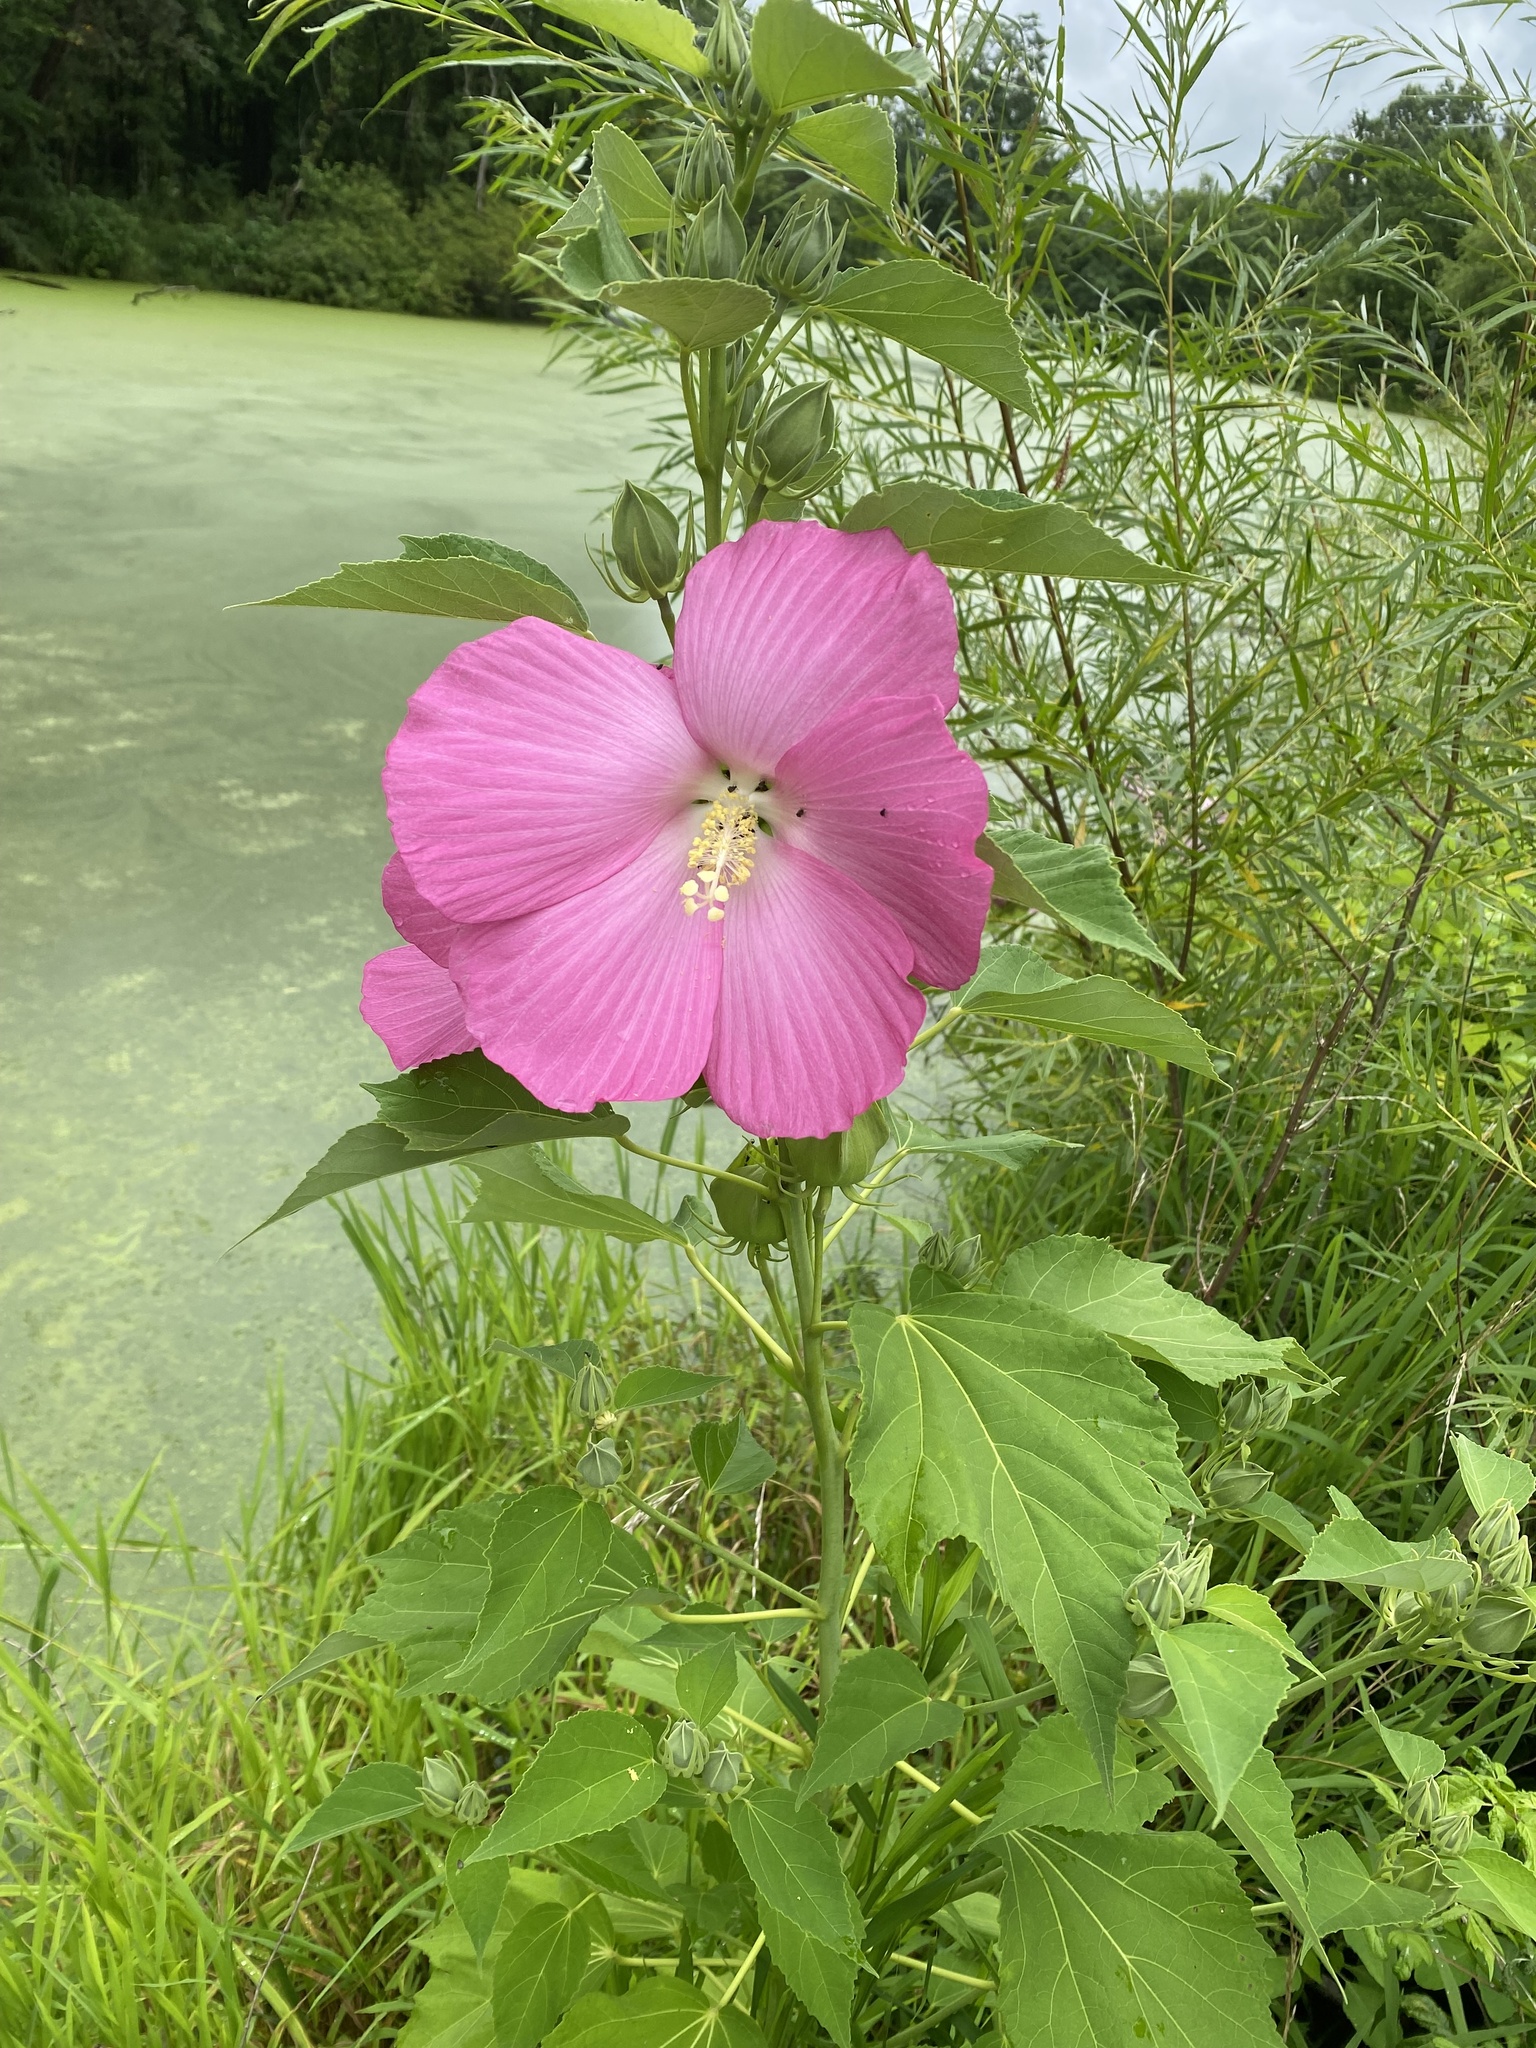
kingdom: Plantae
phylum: Tracheophyta
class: Magnoliopsida
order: Malvales
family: Malvaceae
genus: Hibiscus
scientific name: Hibiscus moscheutos
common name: Common rose-mallow
